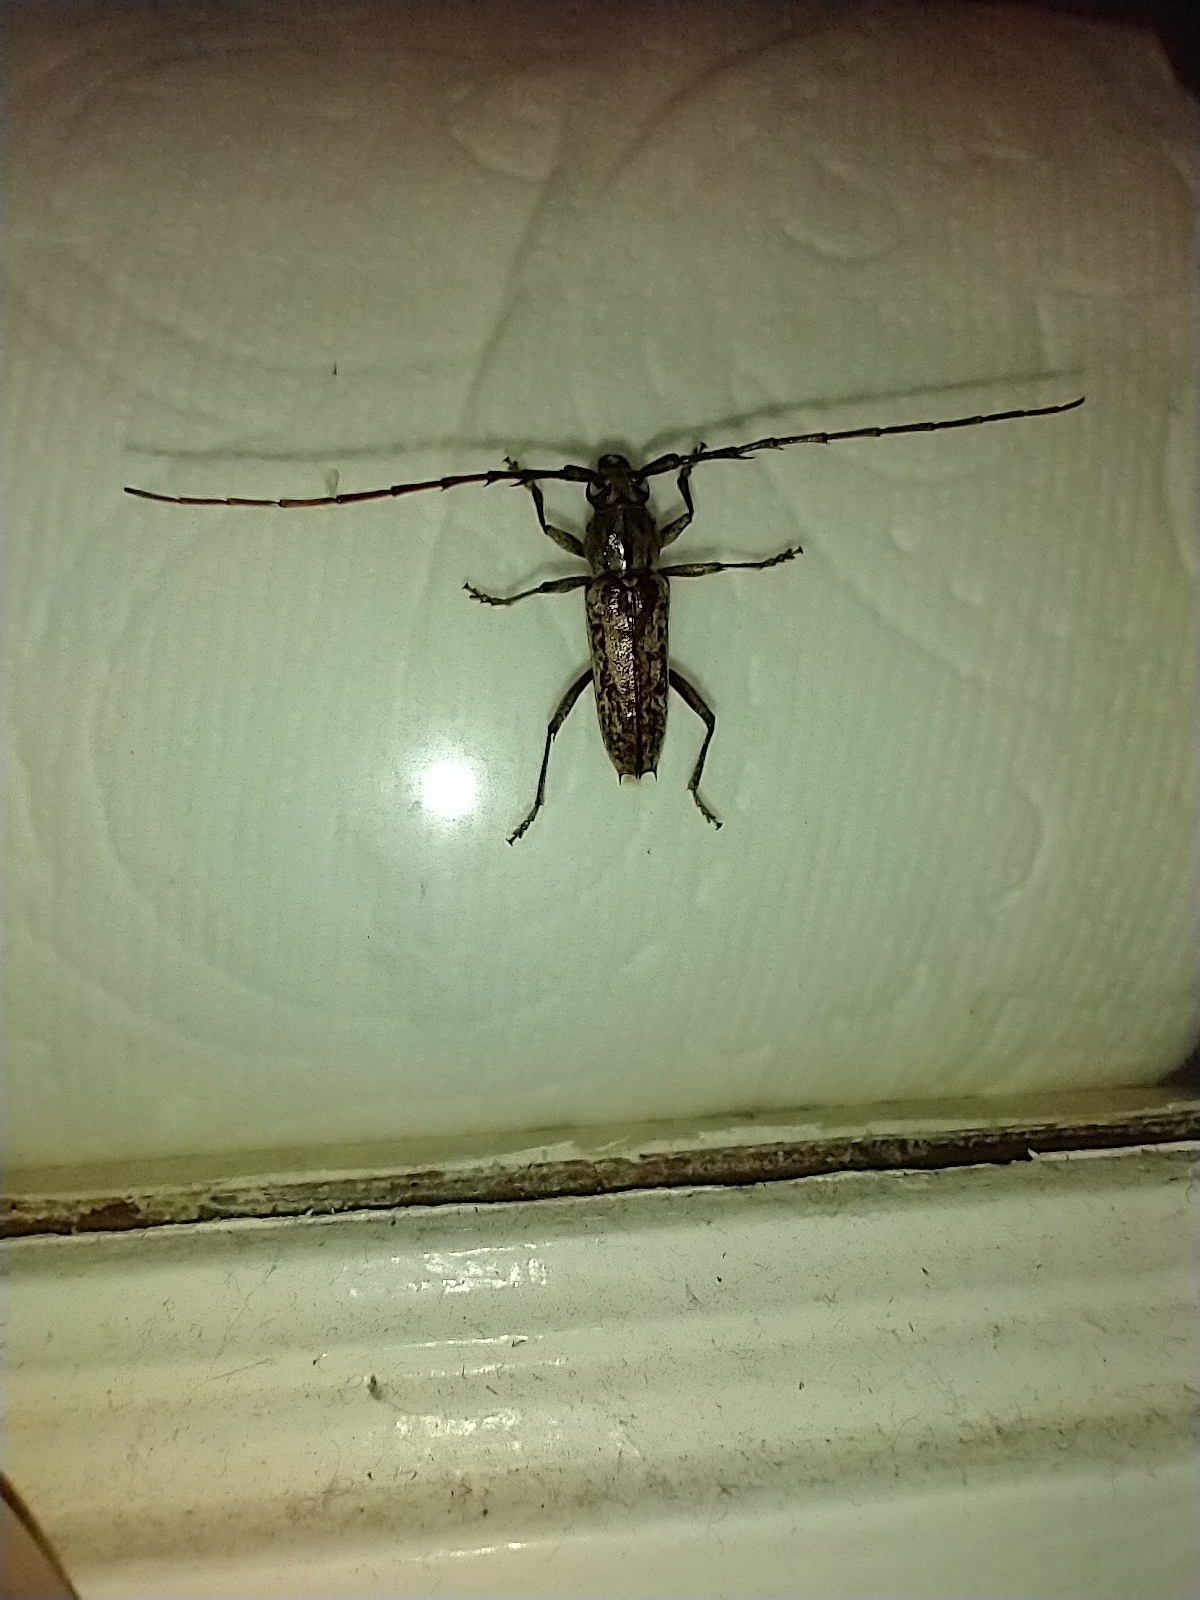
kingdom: Animalia
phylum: Arthropoda
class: Insecta
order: Coleoptera
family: Cerambycidae
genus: Elaphidion
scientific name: Elaphidion mucronatum
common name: Spined oak borer
